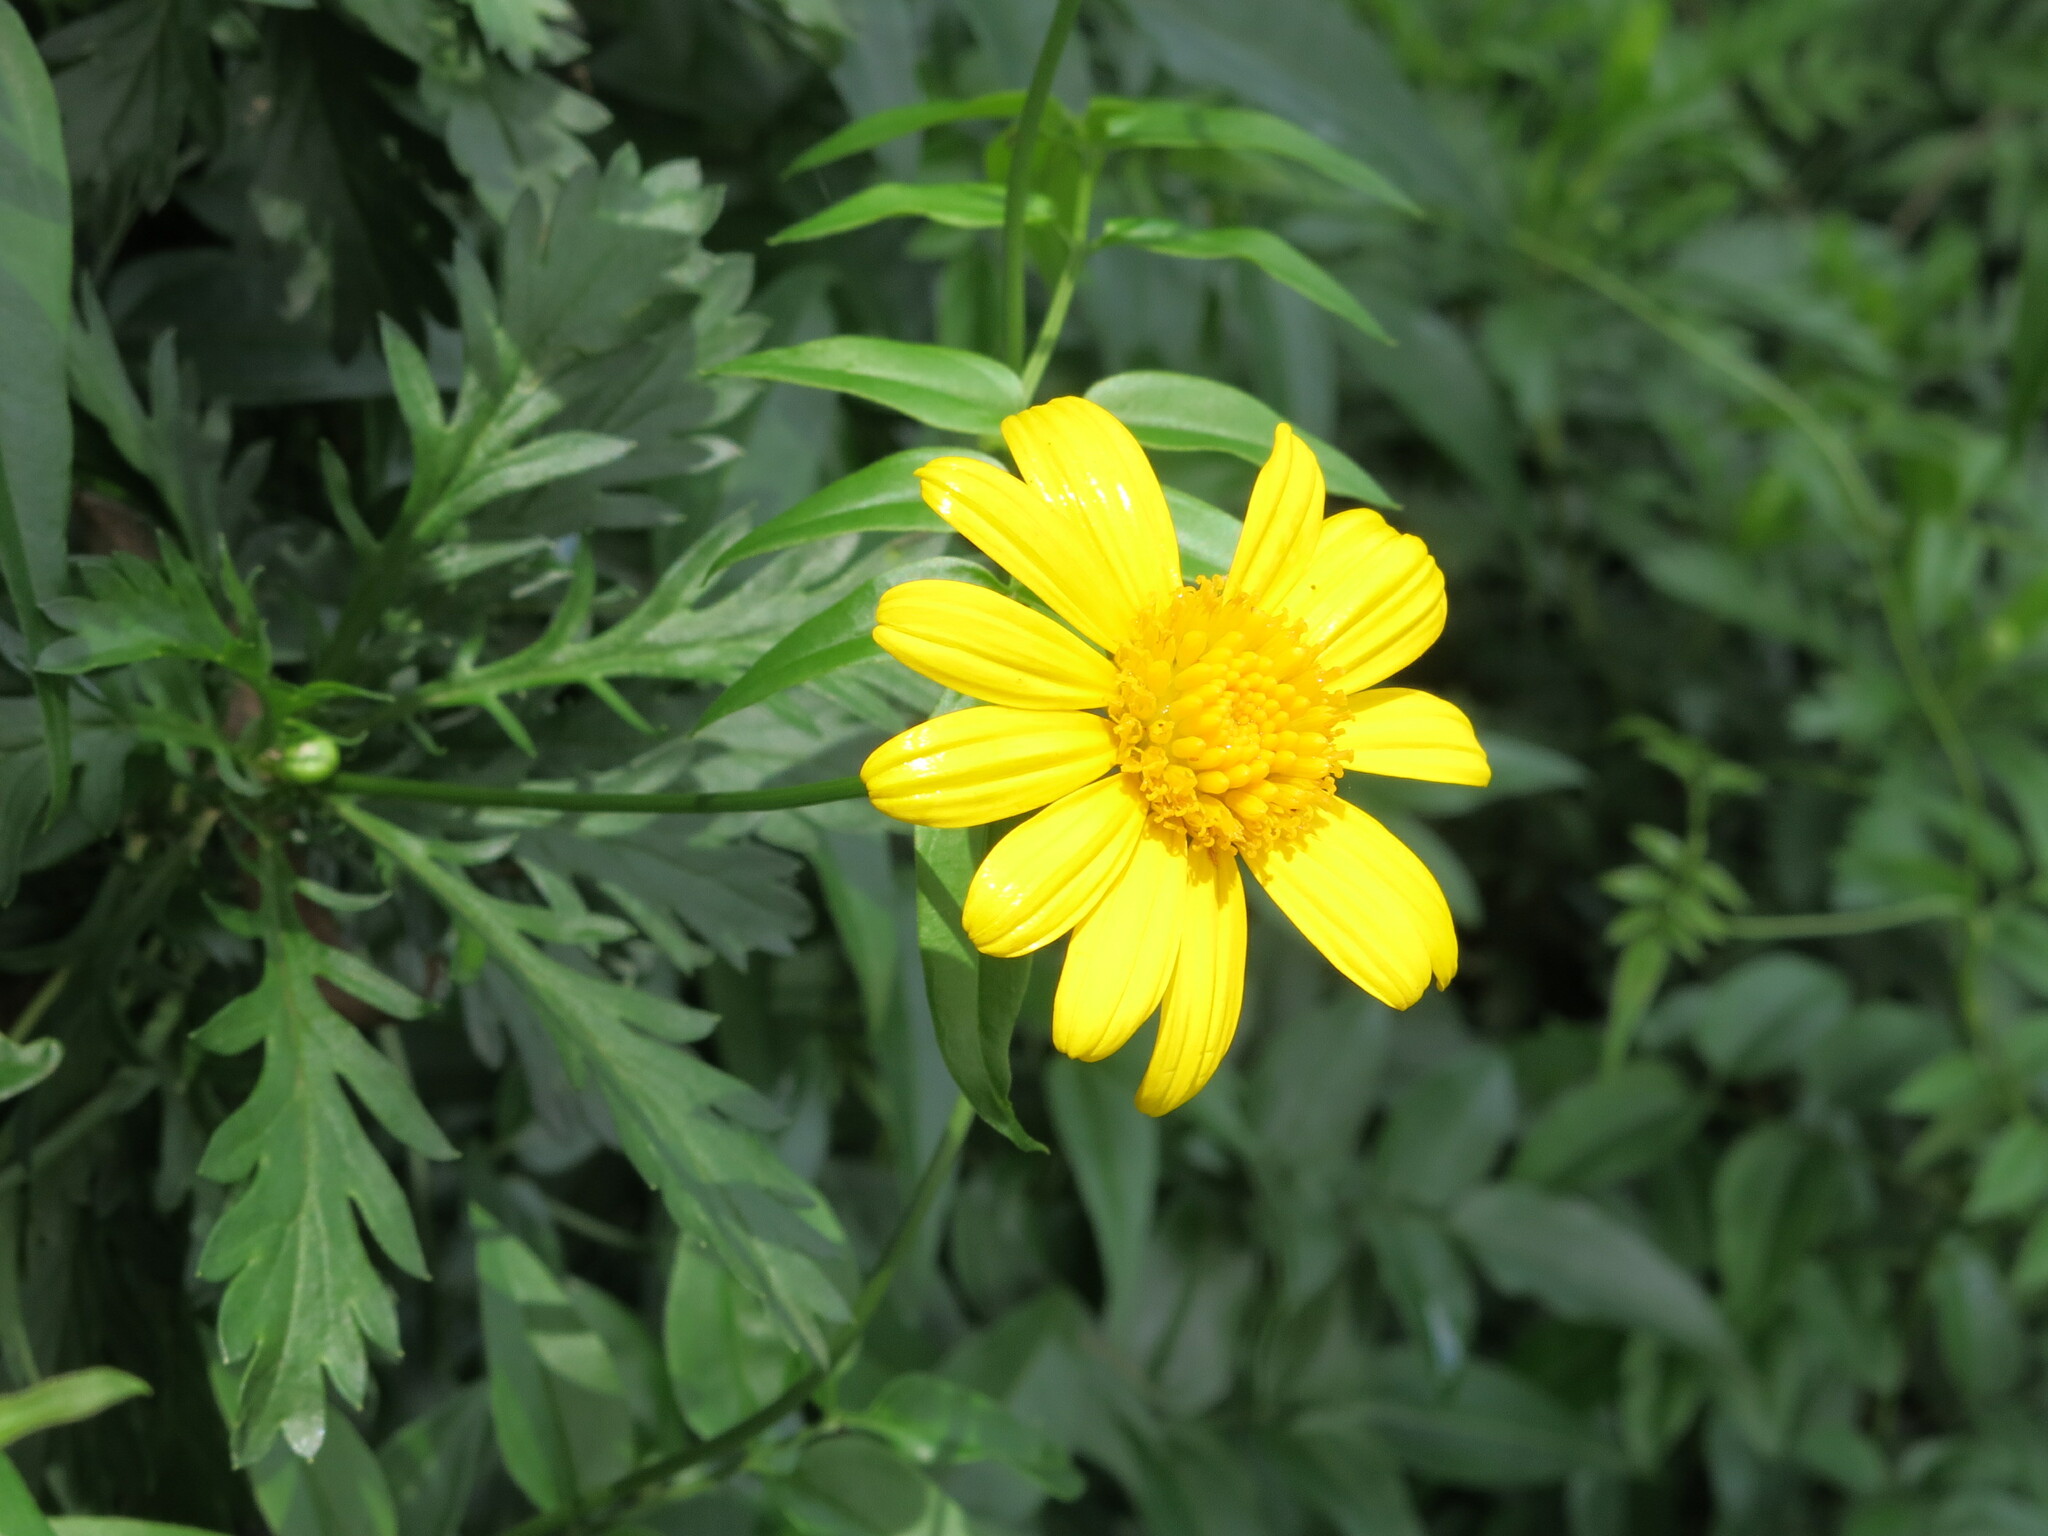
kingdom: Plantae
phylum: Tracheophyta
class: Magnoliopsida
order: Asterales
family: Asteraceae
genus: Euryops
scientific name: Euryops chrysanthemoides
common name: Bull's eye
